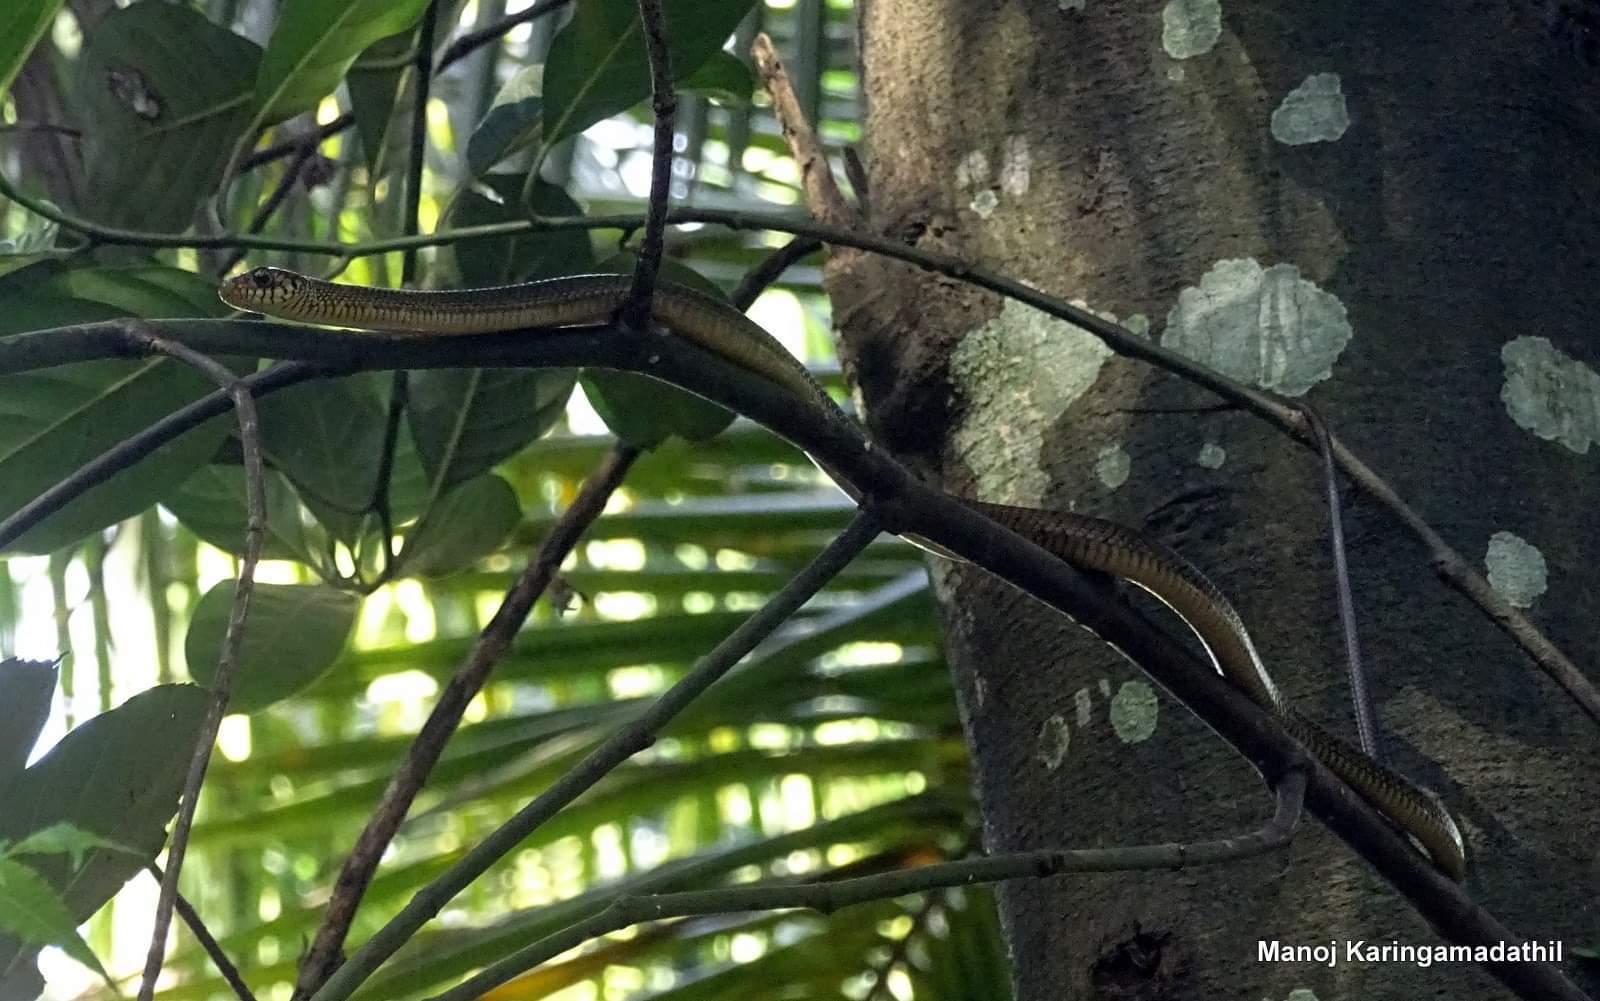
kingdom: Animalia
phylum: Chordata
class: Squamata
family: Colubridae
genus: Ptyas
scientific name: Ptyas mucosa
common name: Oriental ratsnake
